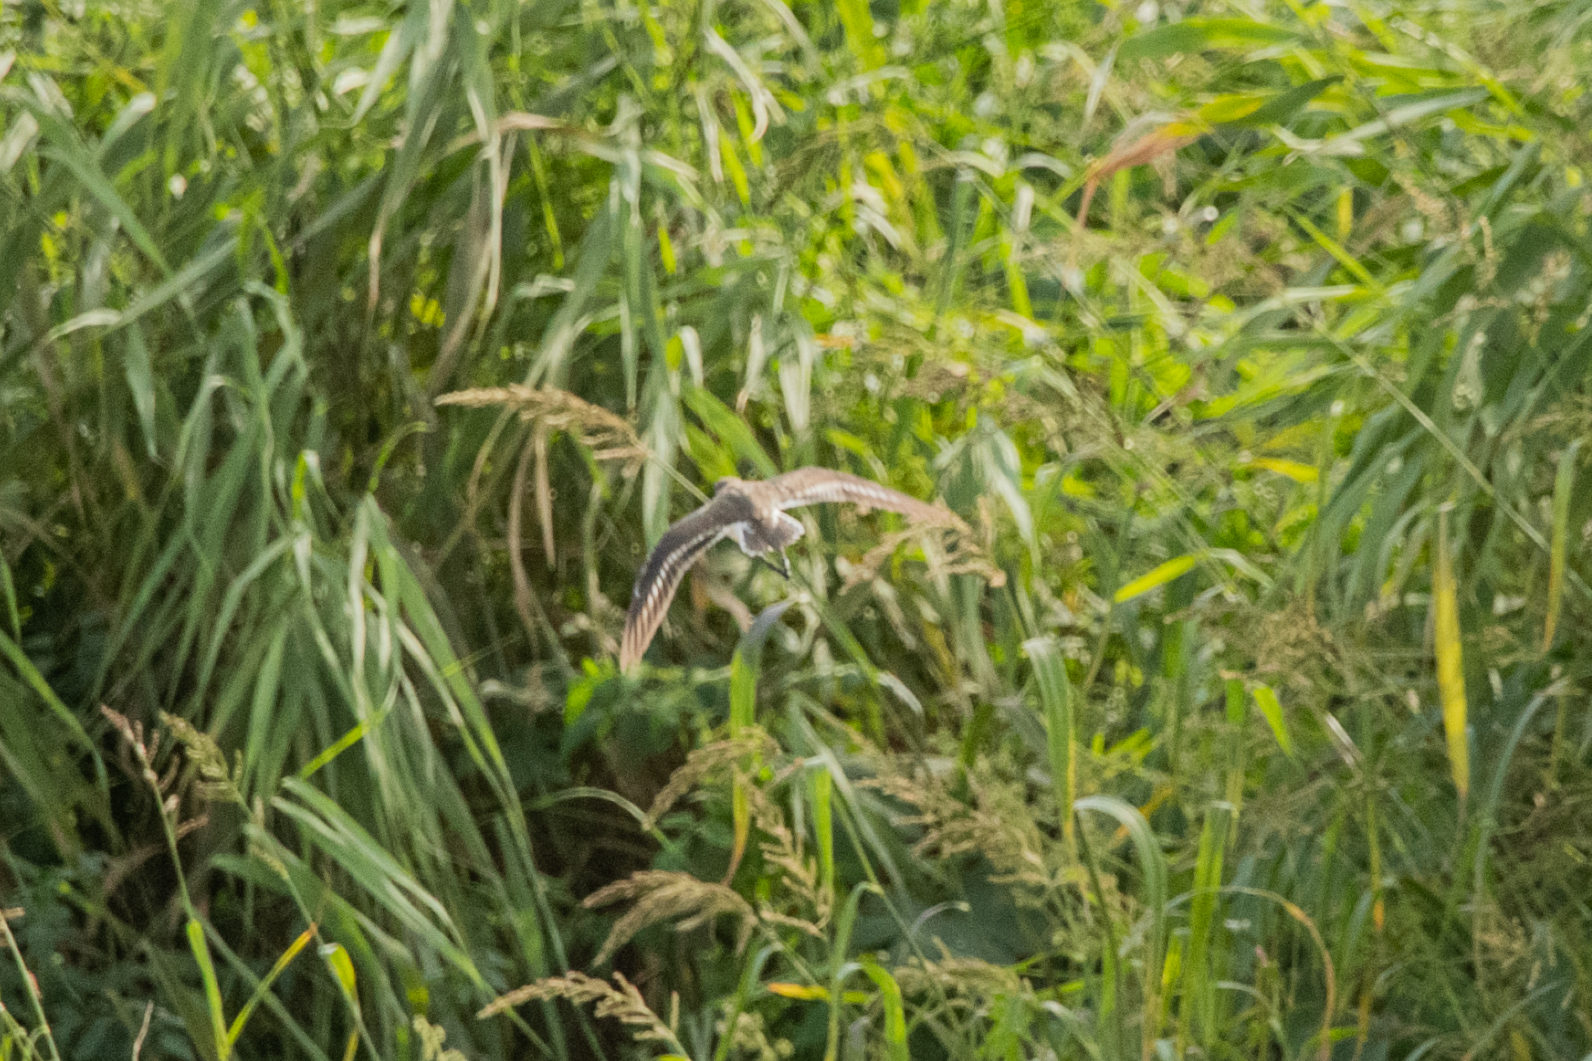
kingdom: Animalia
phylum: Chordata
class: Aves
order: Charadriiformes
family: Scolopacidae
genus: Tringa
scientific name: Tringa glareola
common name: Wood sandpiper
